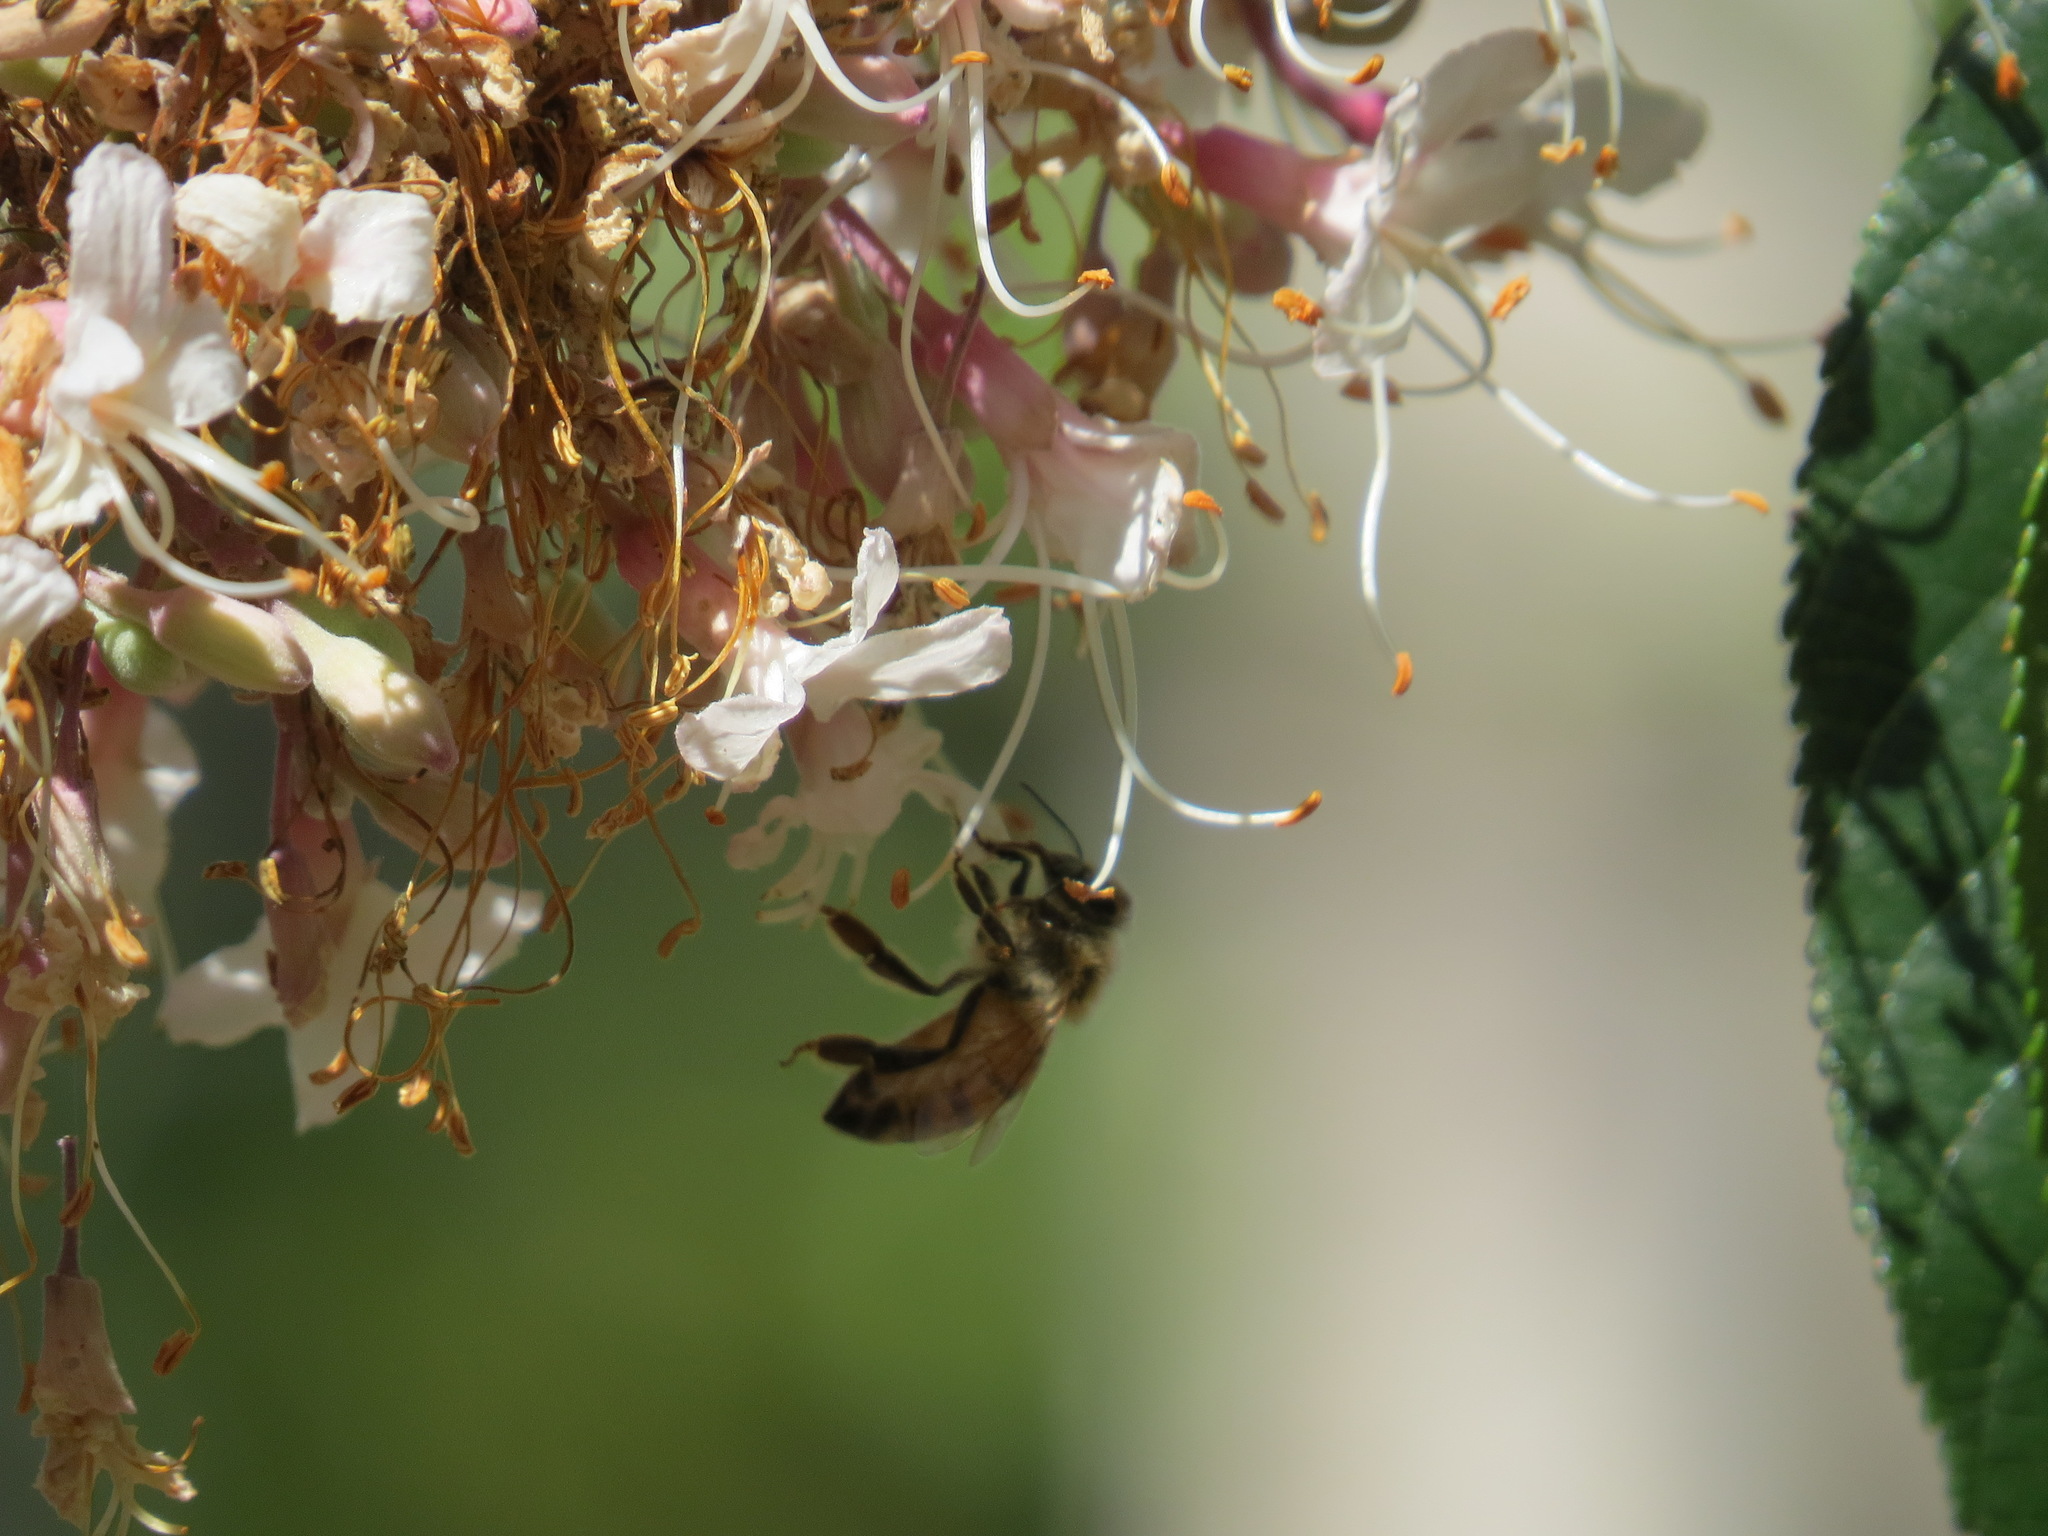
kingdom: Animalia
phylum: Arthropoda
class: Insecta
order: Hymenoptera
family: Apidae
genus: Apis
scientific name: Apis mellifera
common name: Honey bee
